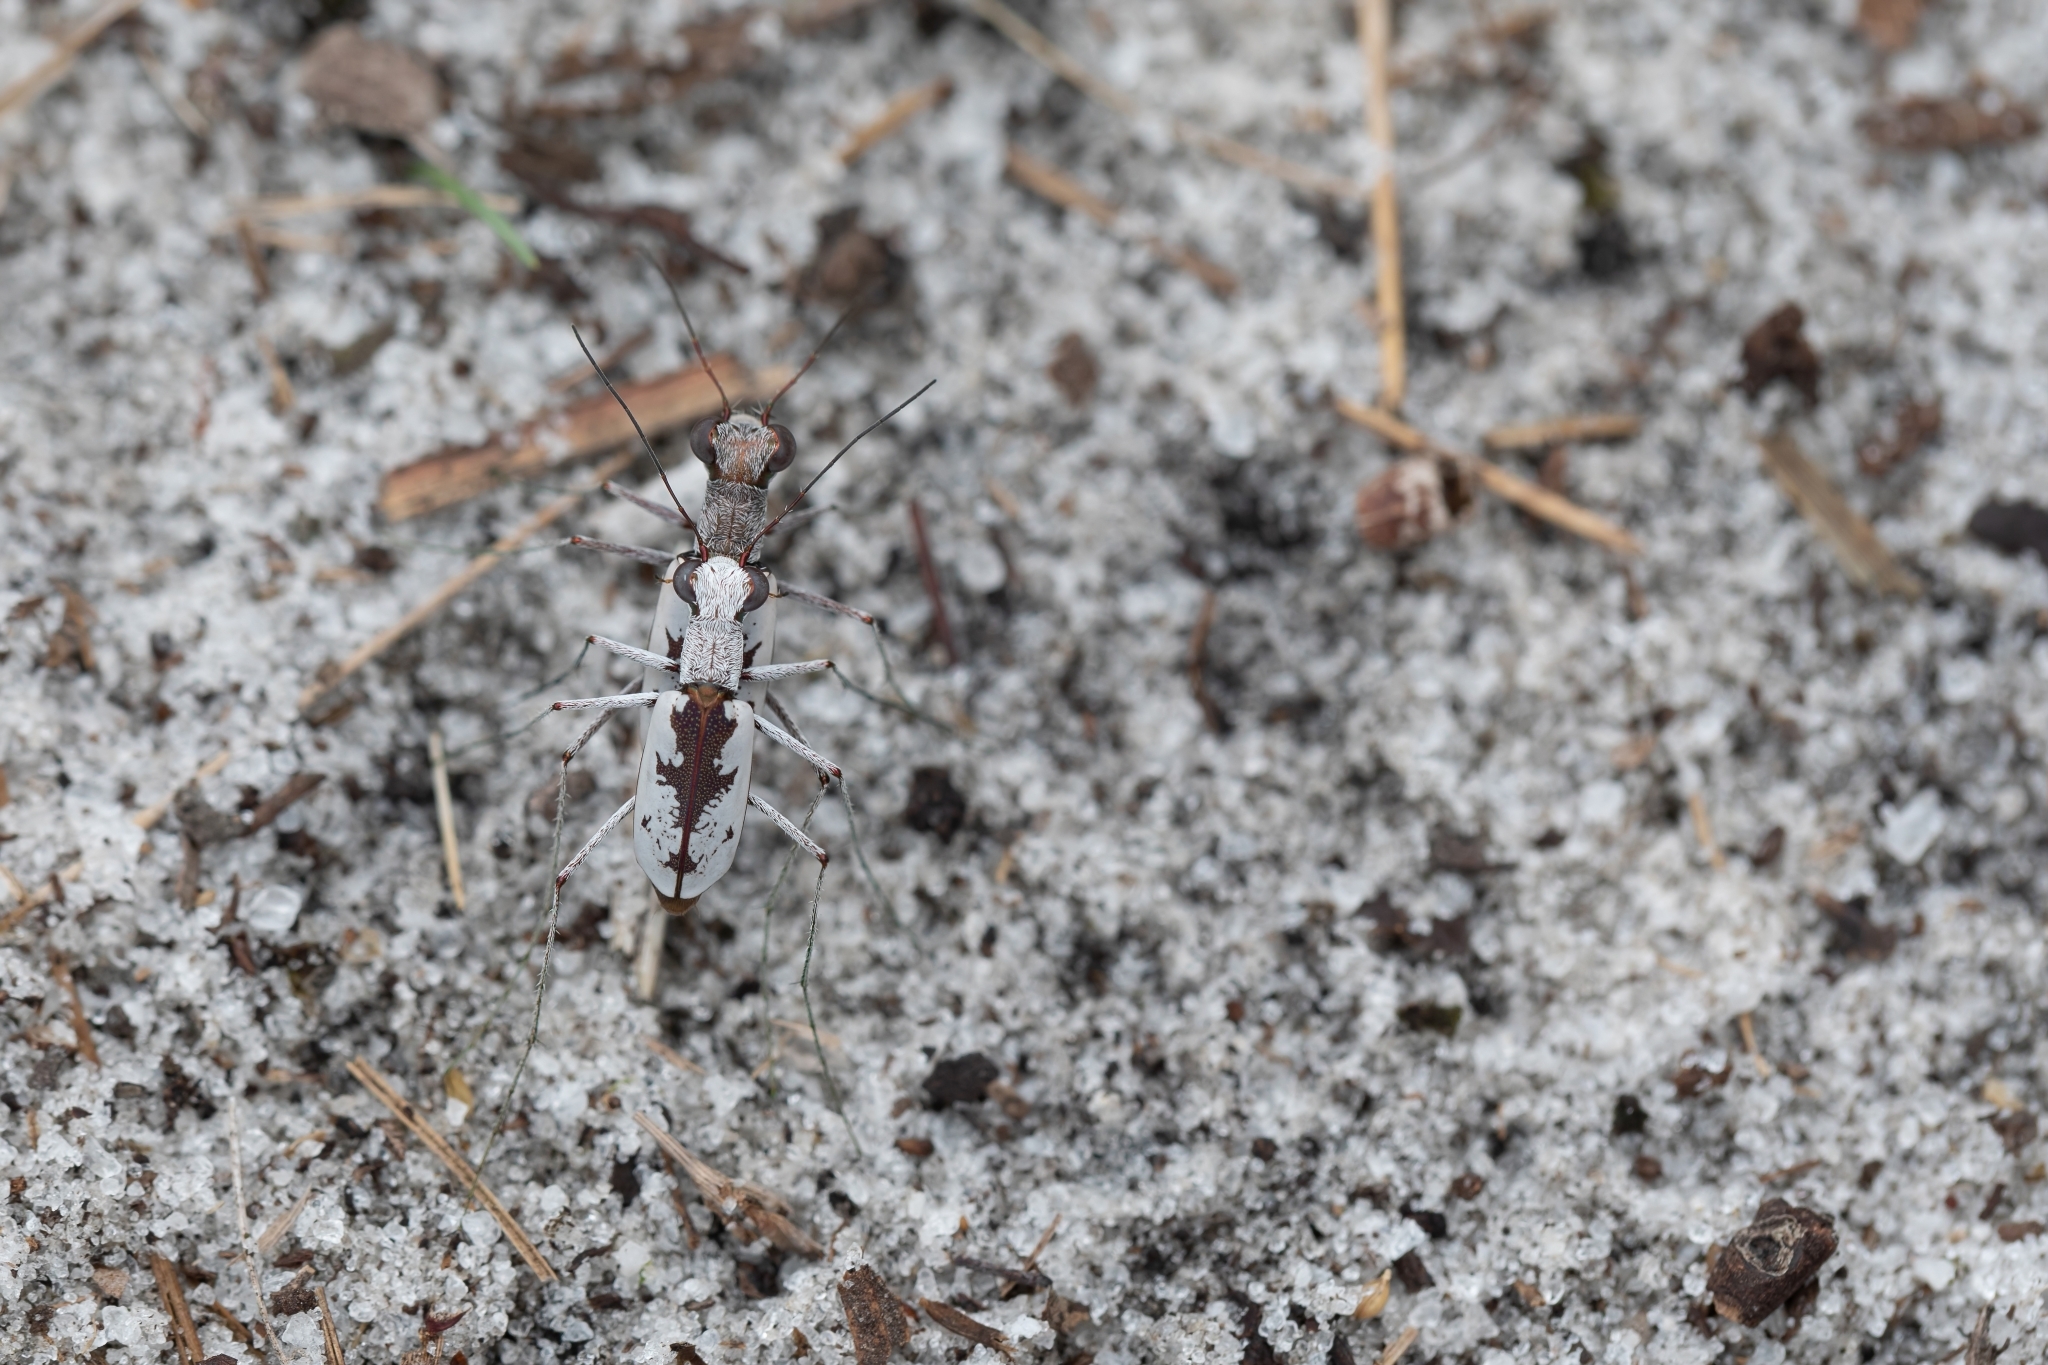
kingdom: Animalia
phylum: Arthropoda
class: Insecta
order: Coleoptera
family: Carabidae
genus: Ellipsoptera
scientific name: Ellipsoptera hirtilabris
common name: Moustached tiger beetle
